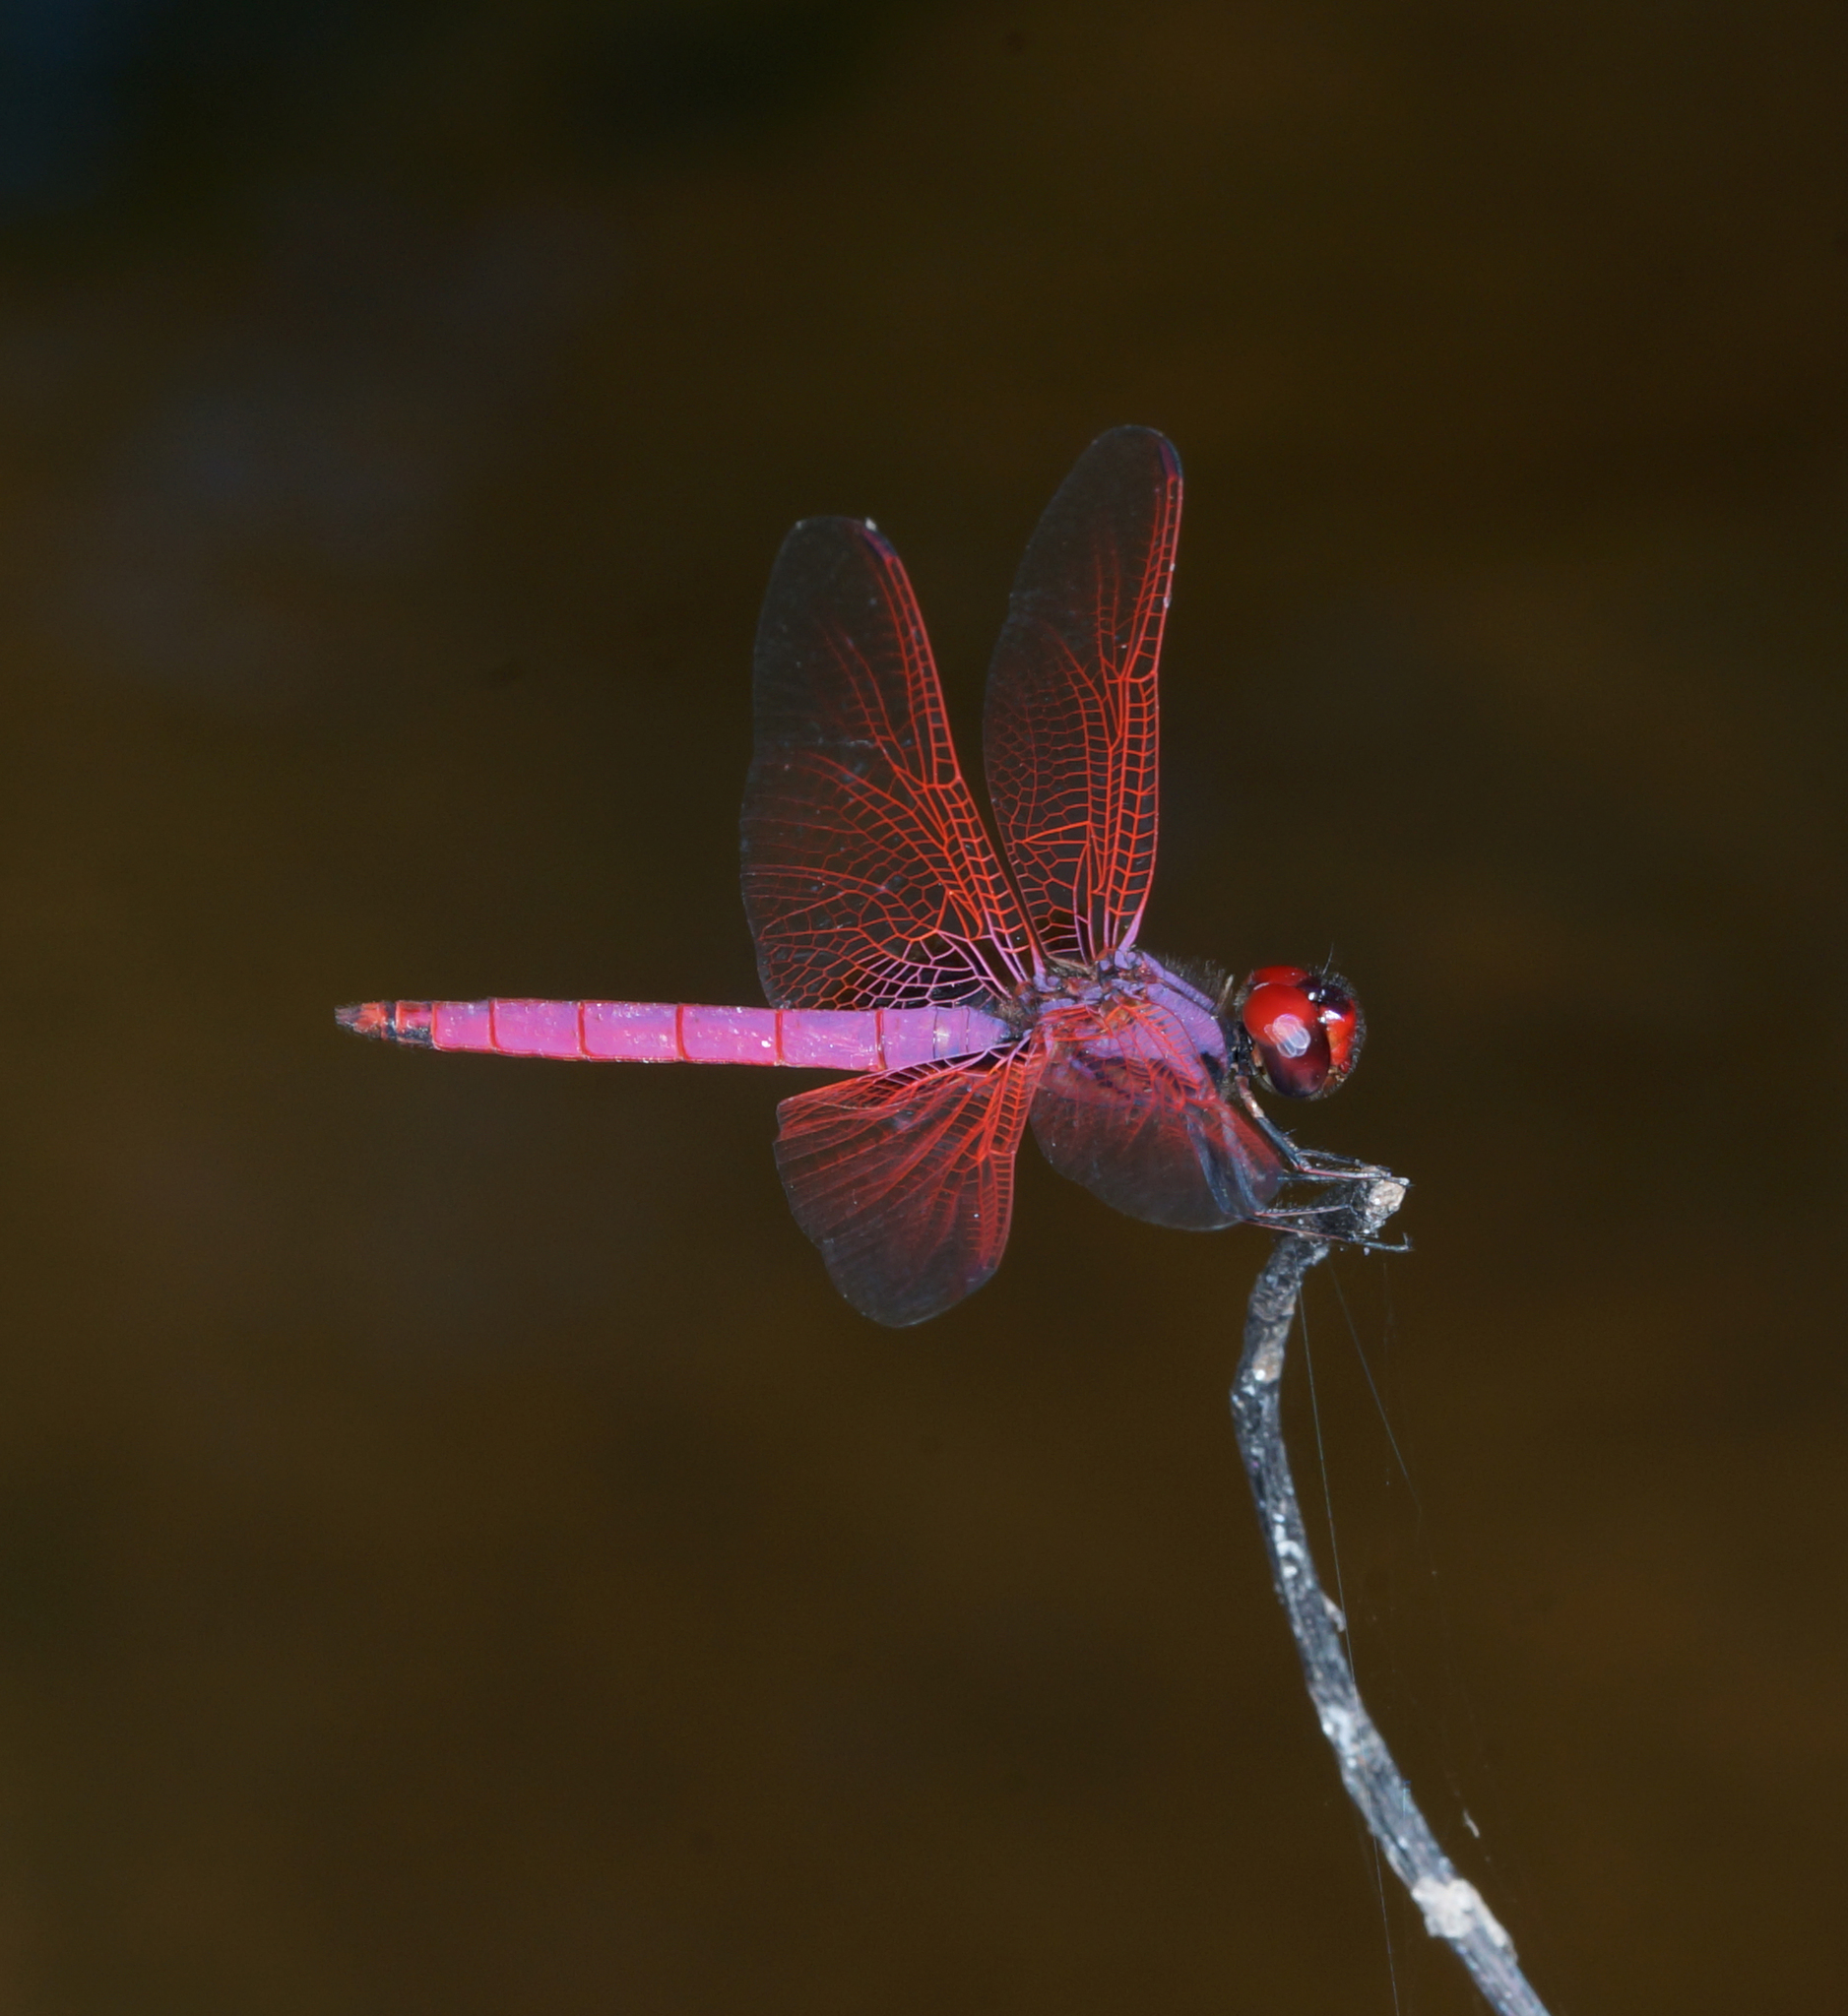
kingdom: Animalia
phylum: Arthropoda
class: Insecta
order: Odonata
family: Libellulidae
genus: Trithemis
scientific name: Trithemis aurora
